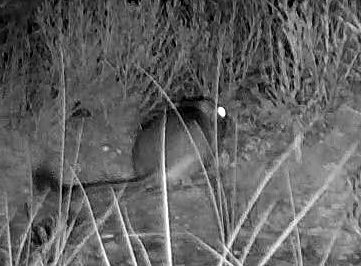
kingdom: Animalia
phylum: Chordata
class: Mammalia
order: Rodentia
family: Heteromyidae
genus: Dipodomys
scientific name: Dipodomys ordii
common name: Ord's kangaroo rat
